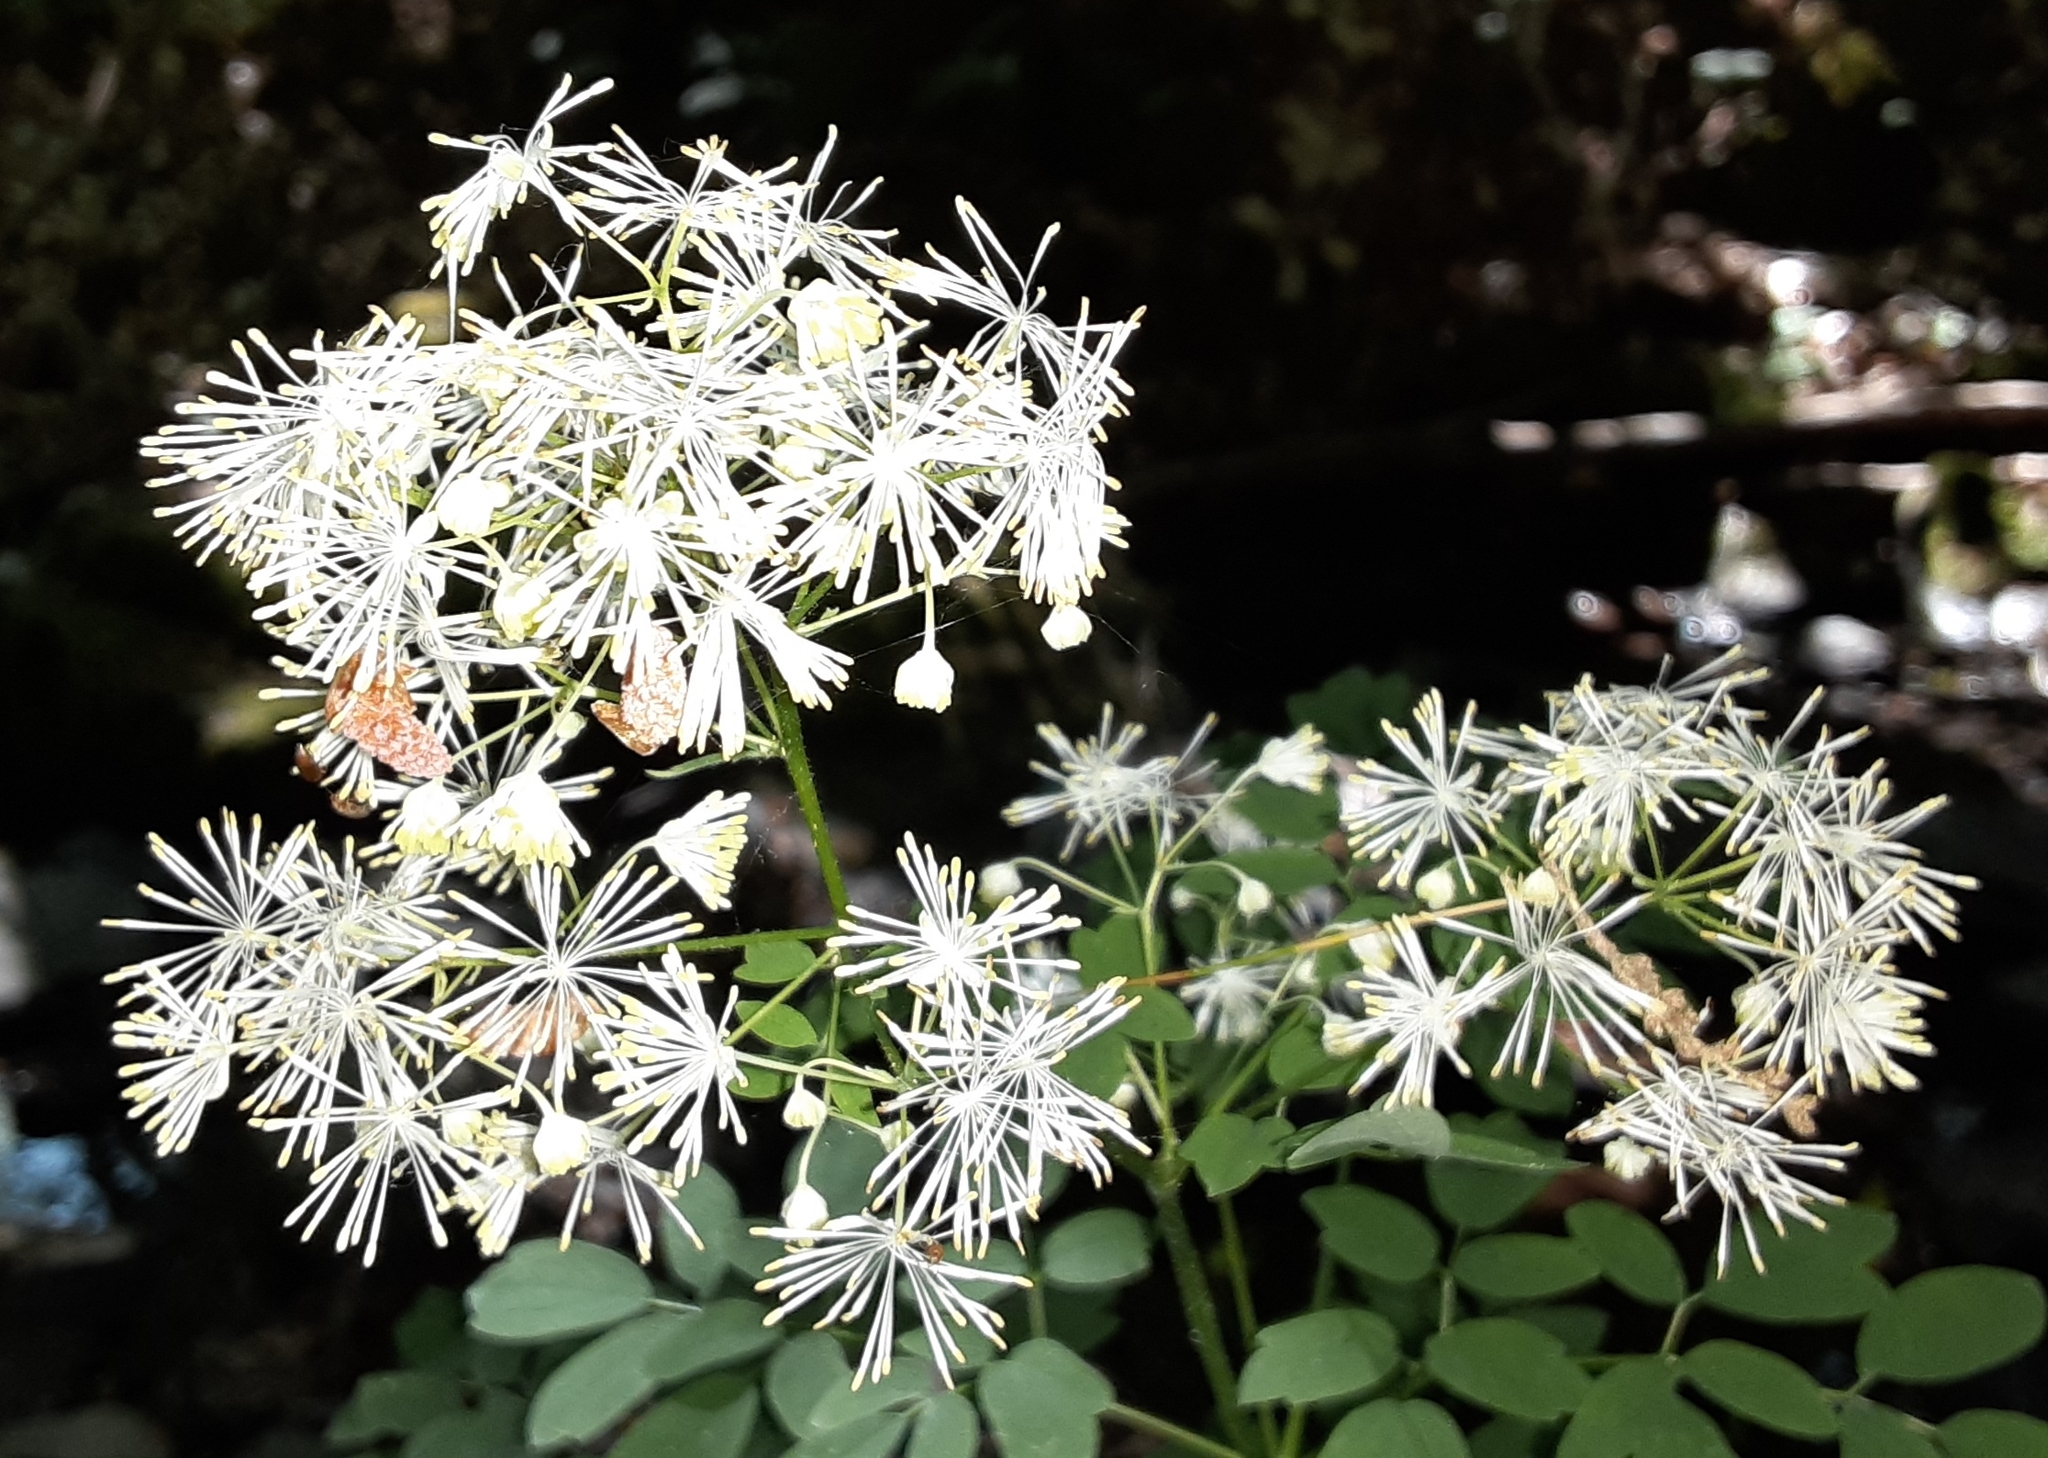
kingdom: Plantae
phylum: Tracheophyta
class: Magnoliopsida
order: Ranunculales
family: Ranunculaceae
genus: Thalictrum
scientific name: Thalictrum pubescens
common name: King-of-the-meadow
